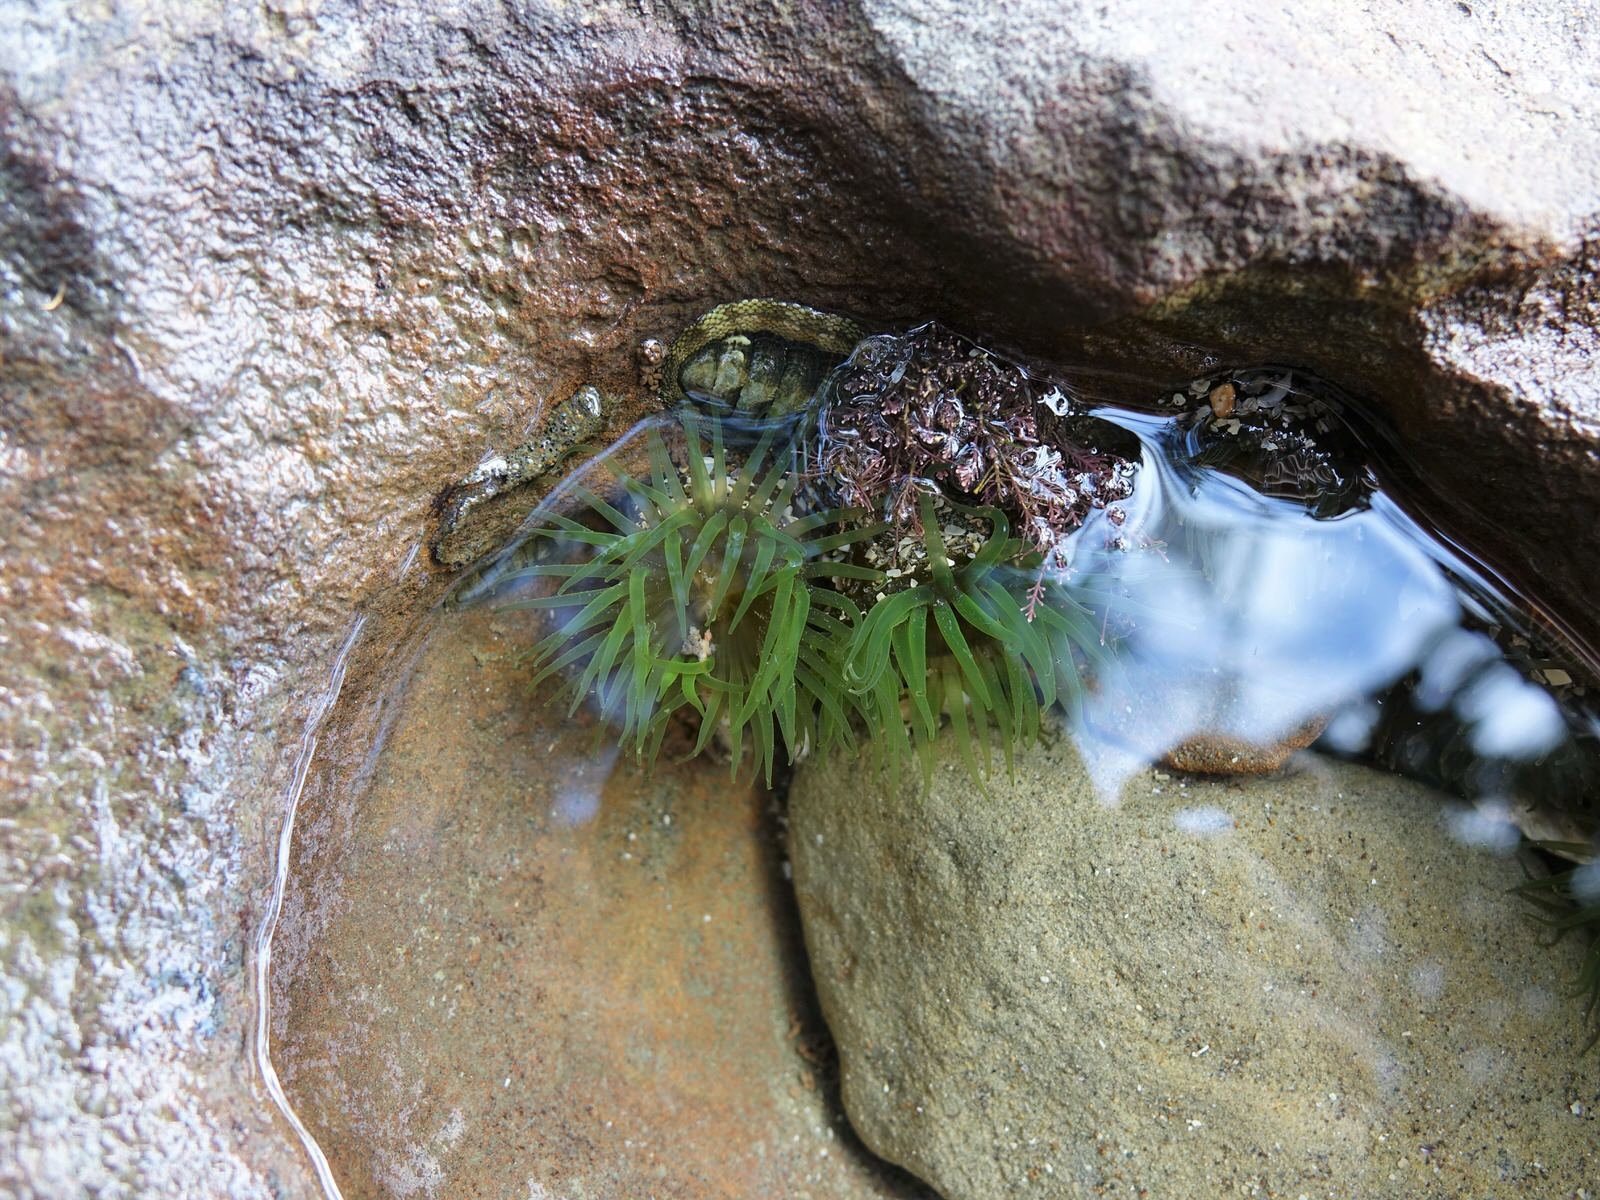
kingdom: Animalia
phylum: Cnidaria
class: Anthozoa
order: Actiniaria
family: Actiniidae
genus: Aulactinia
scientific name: Aulactinia veratra
